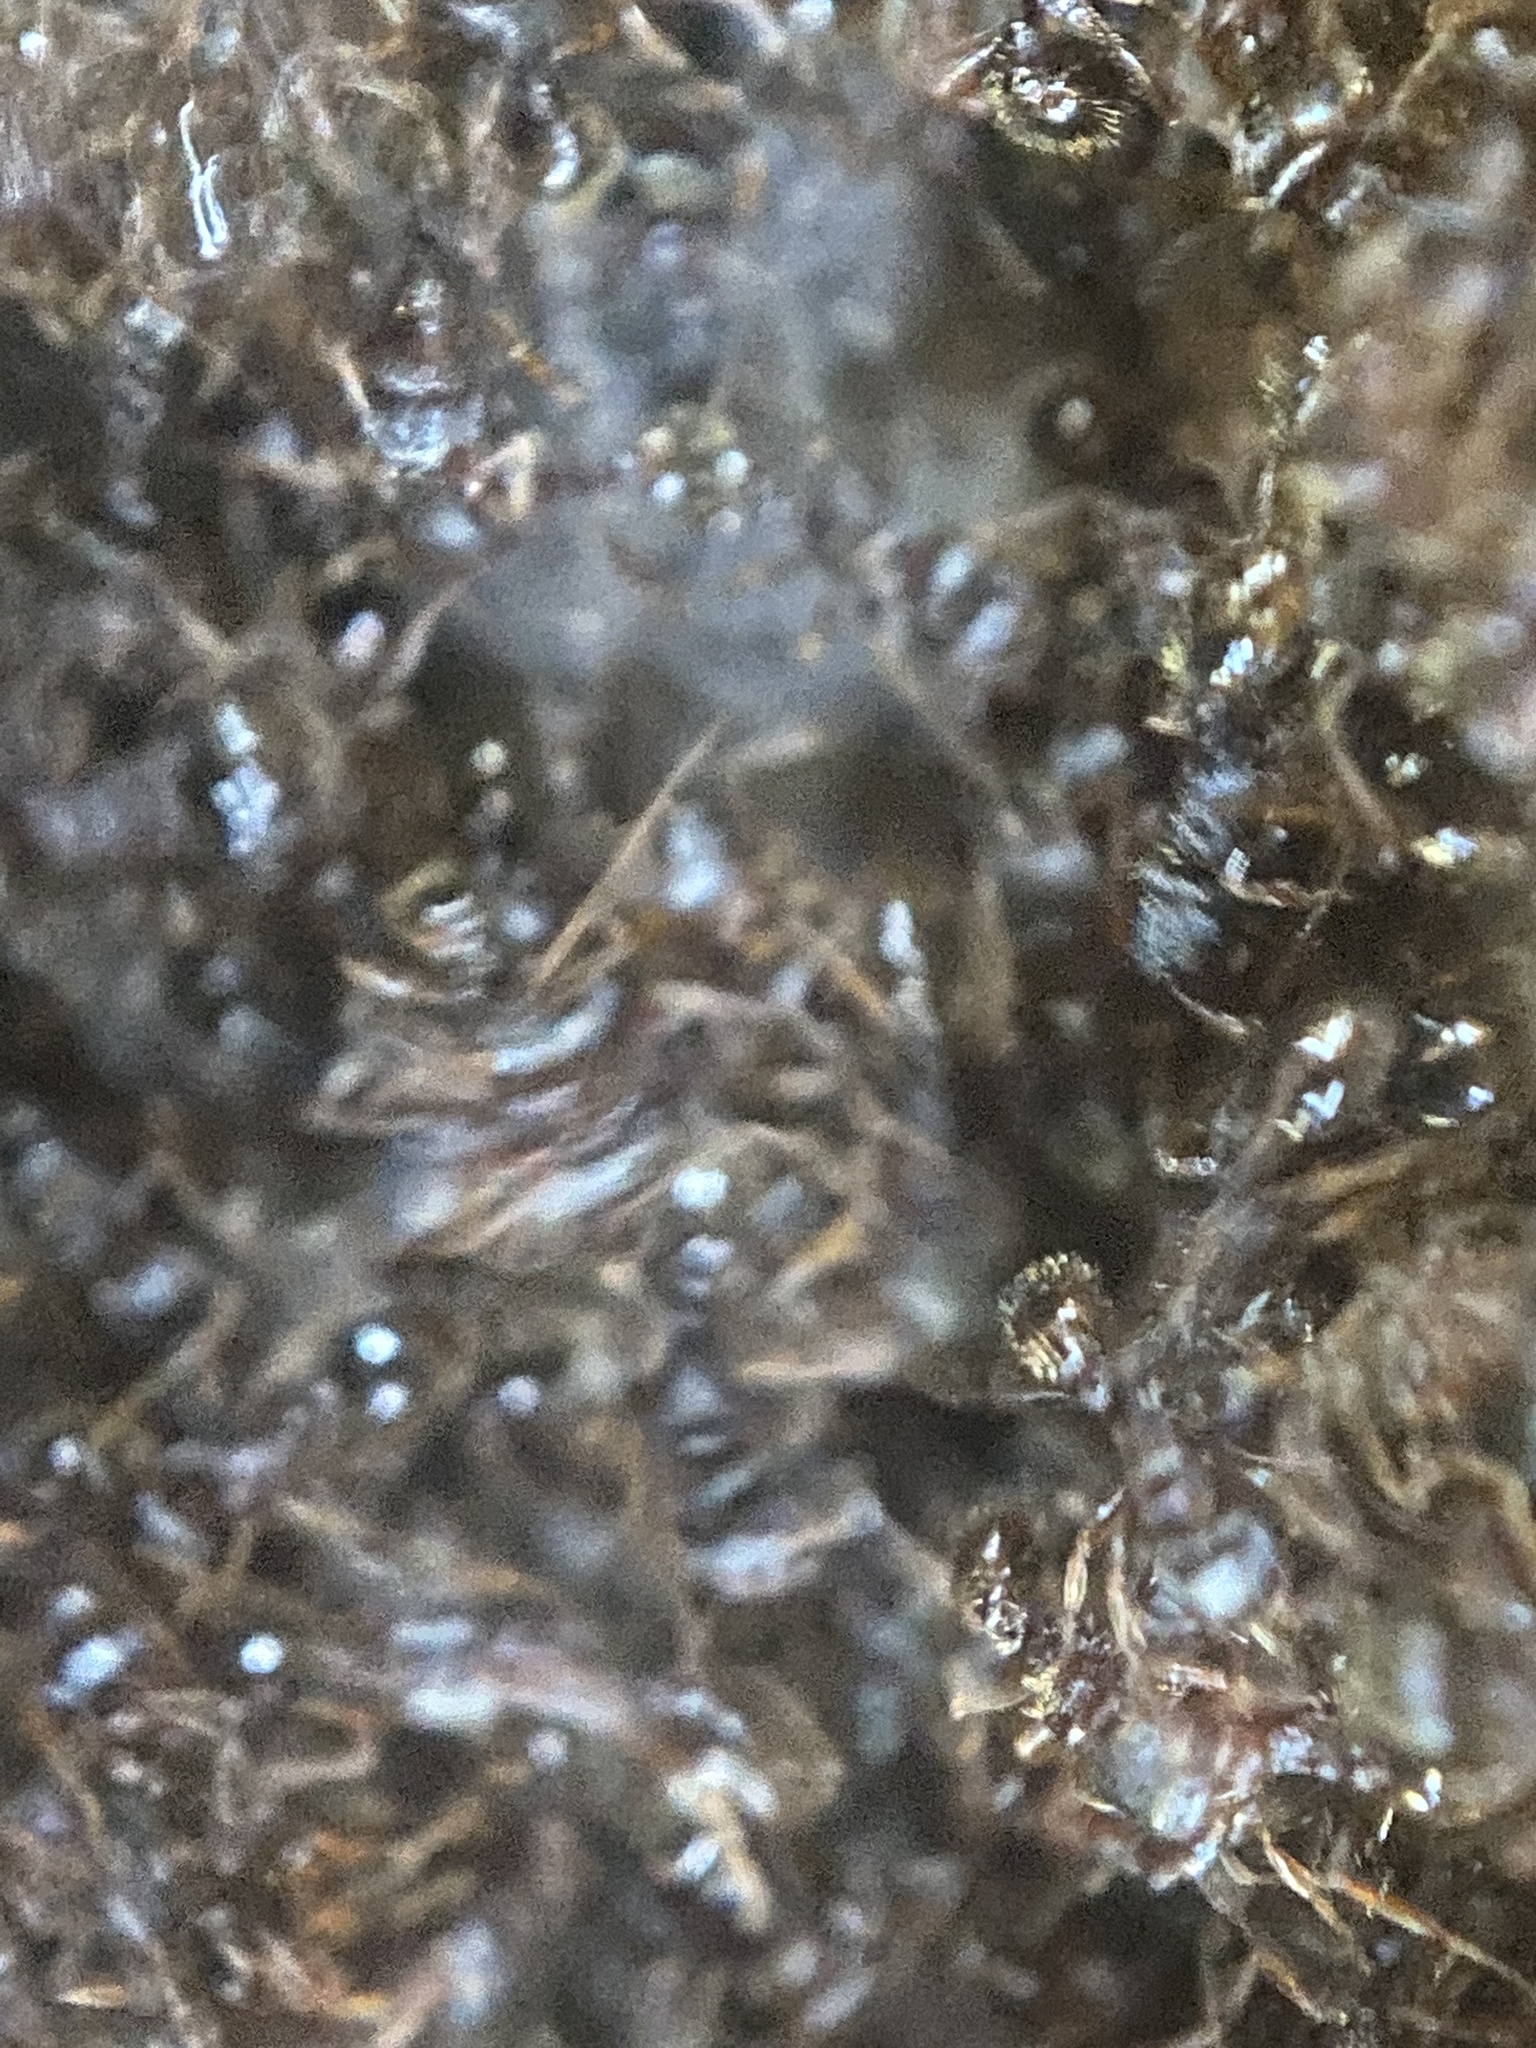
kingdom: Animalia
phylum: Arthropoda
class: Insecta
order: Hymenoptera
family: Formicidae
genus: Tetramorium
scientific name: Tetramorium immigrans
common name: Pavement ant
